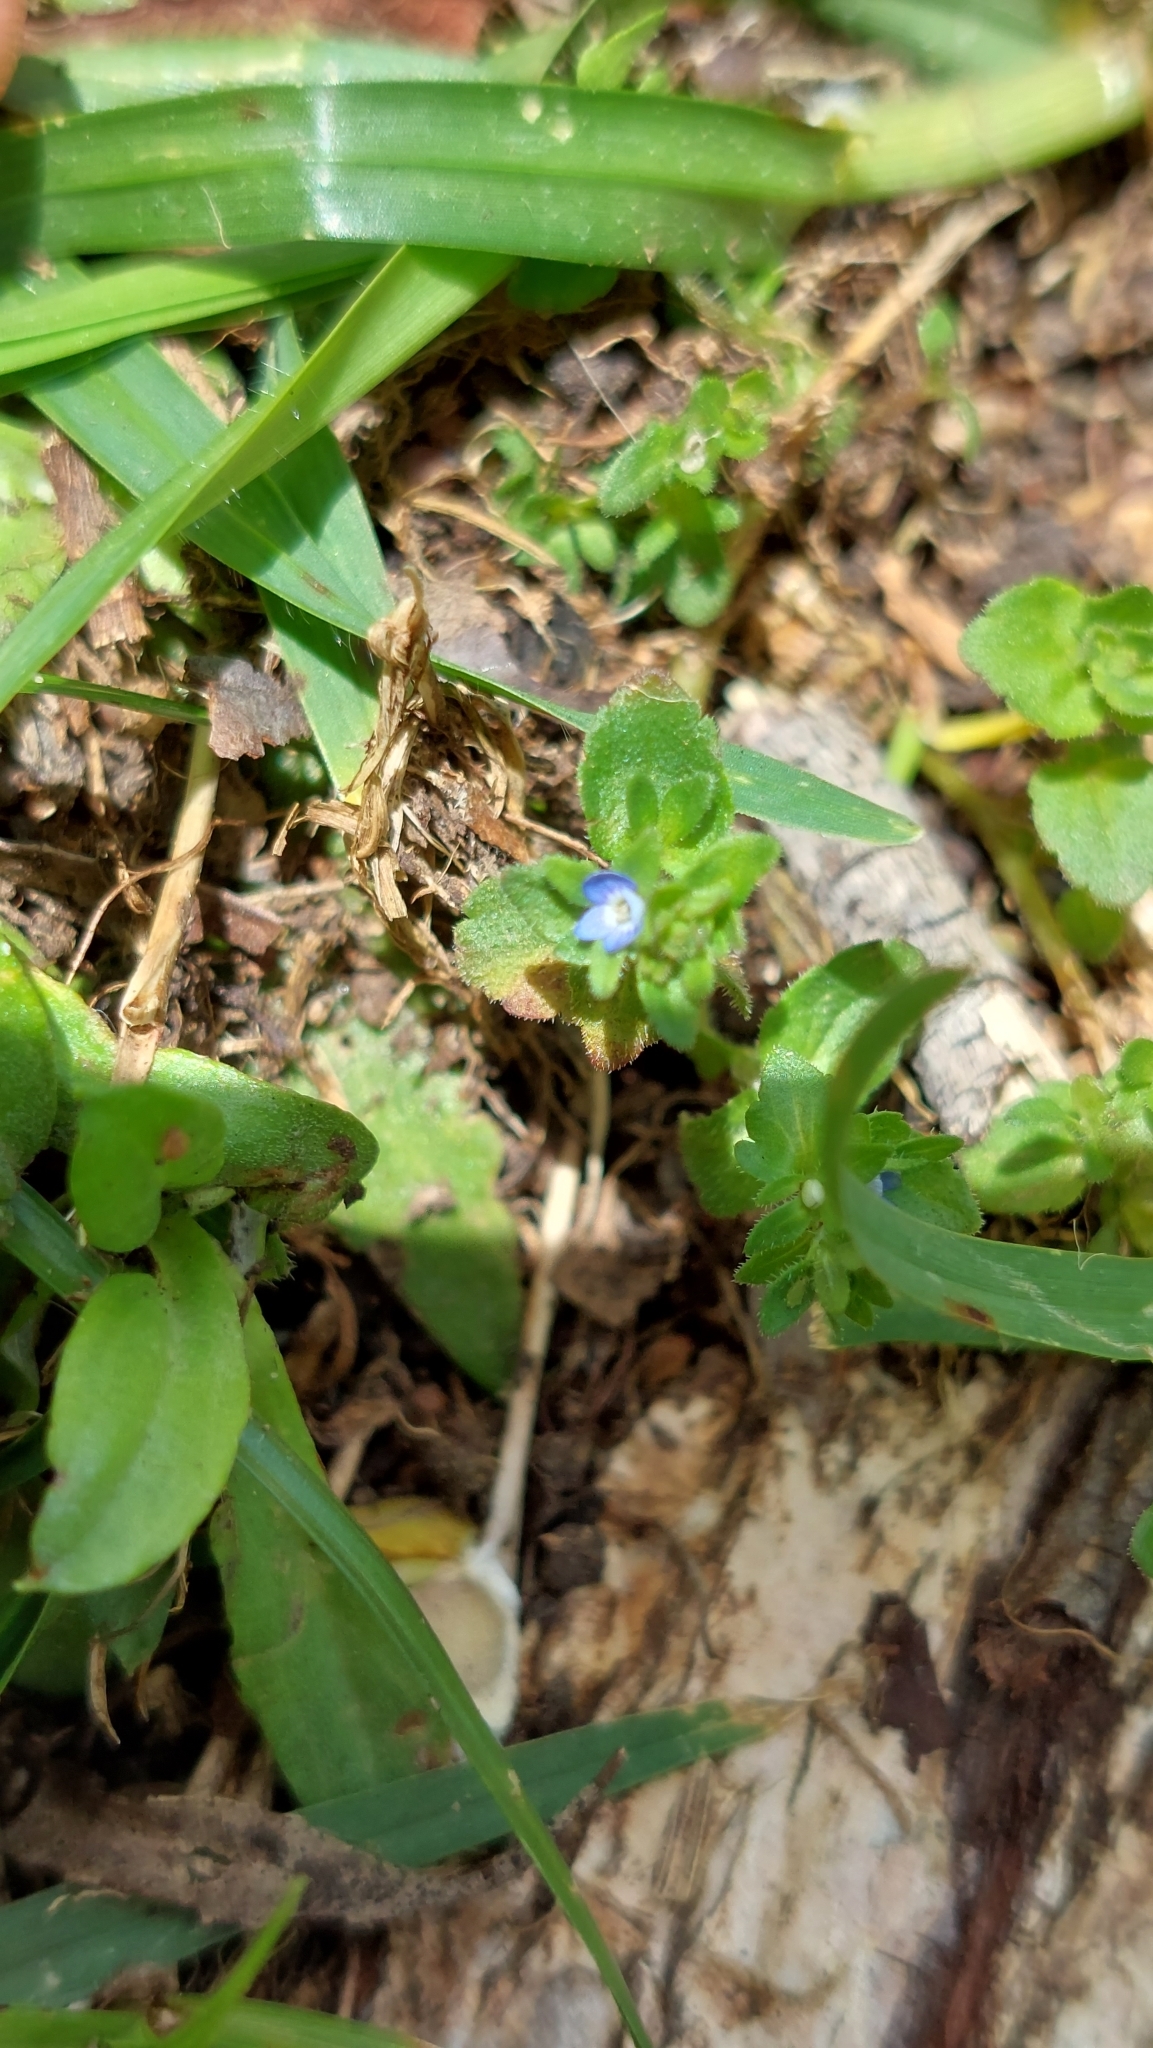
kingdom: Plantae
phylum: Tracheophyta
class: Magnoliopsida
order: Lamiales
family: Plantaginaceae
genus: Veronica
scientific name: Veronica arvensis
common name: Corn speedwell
